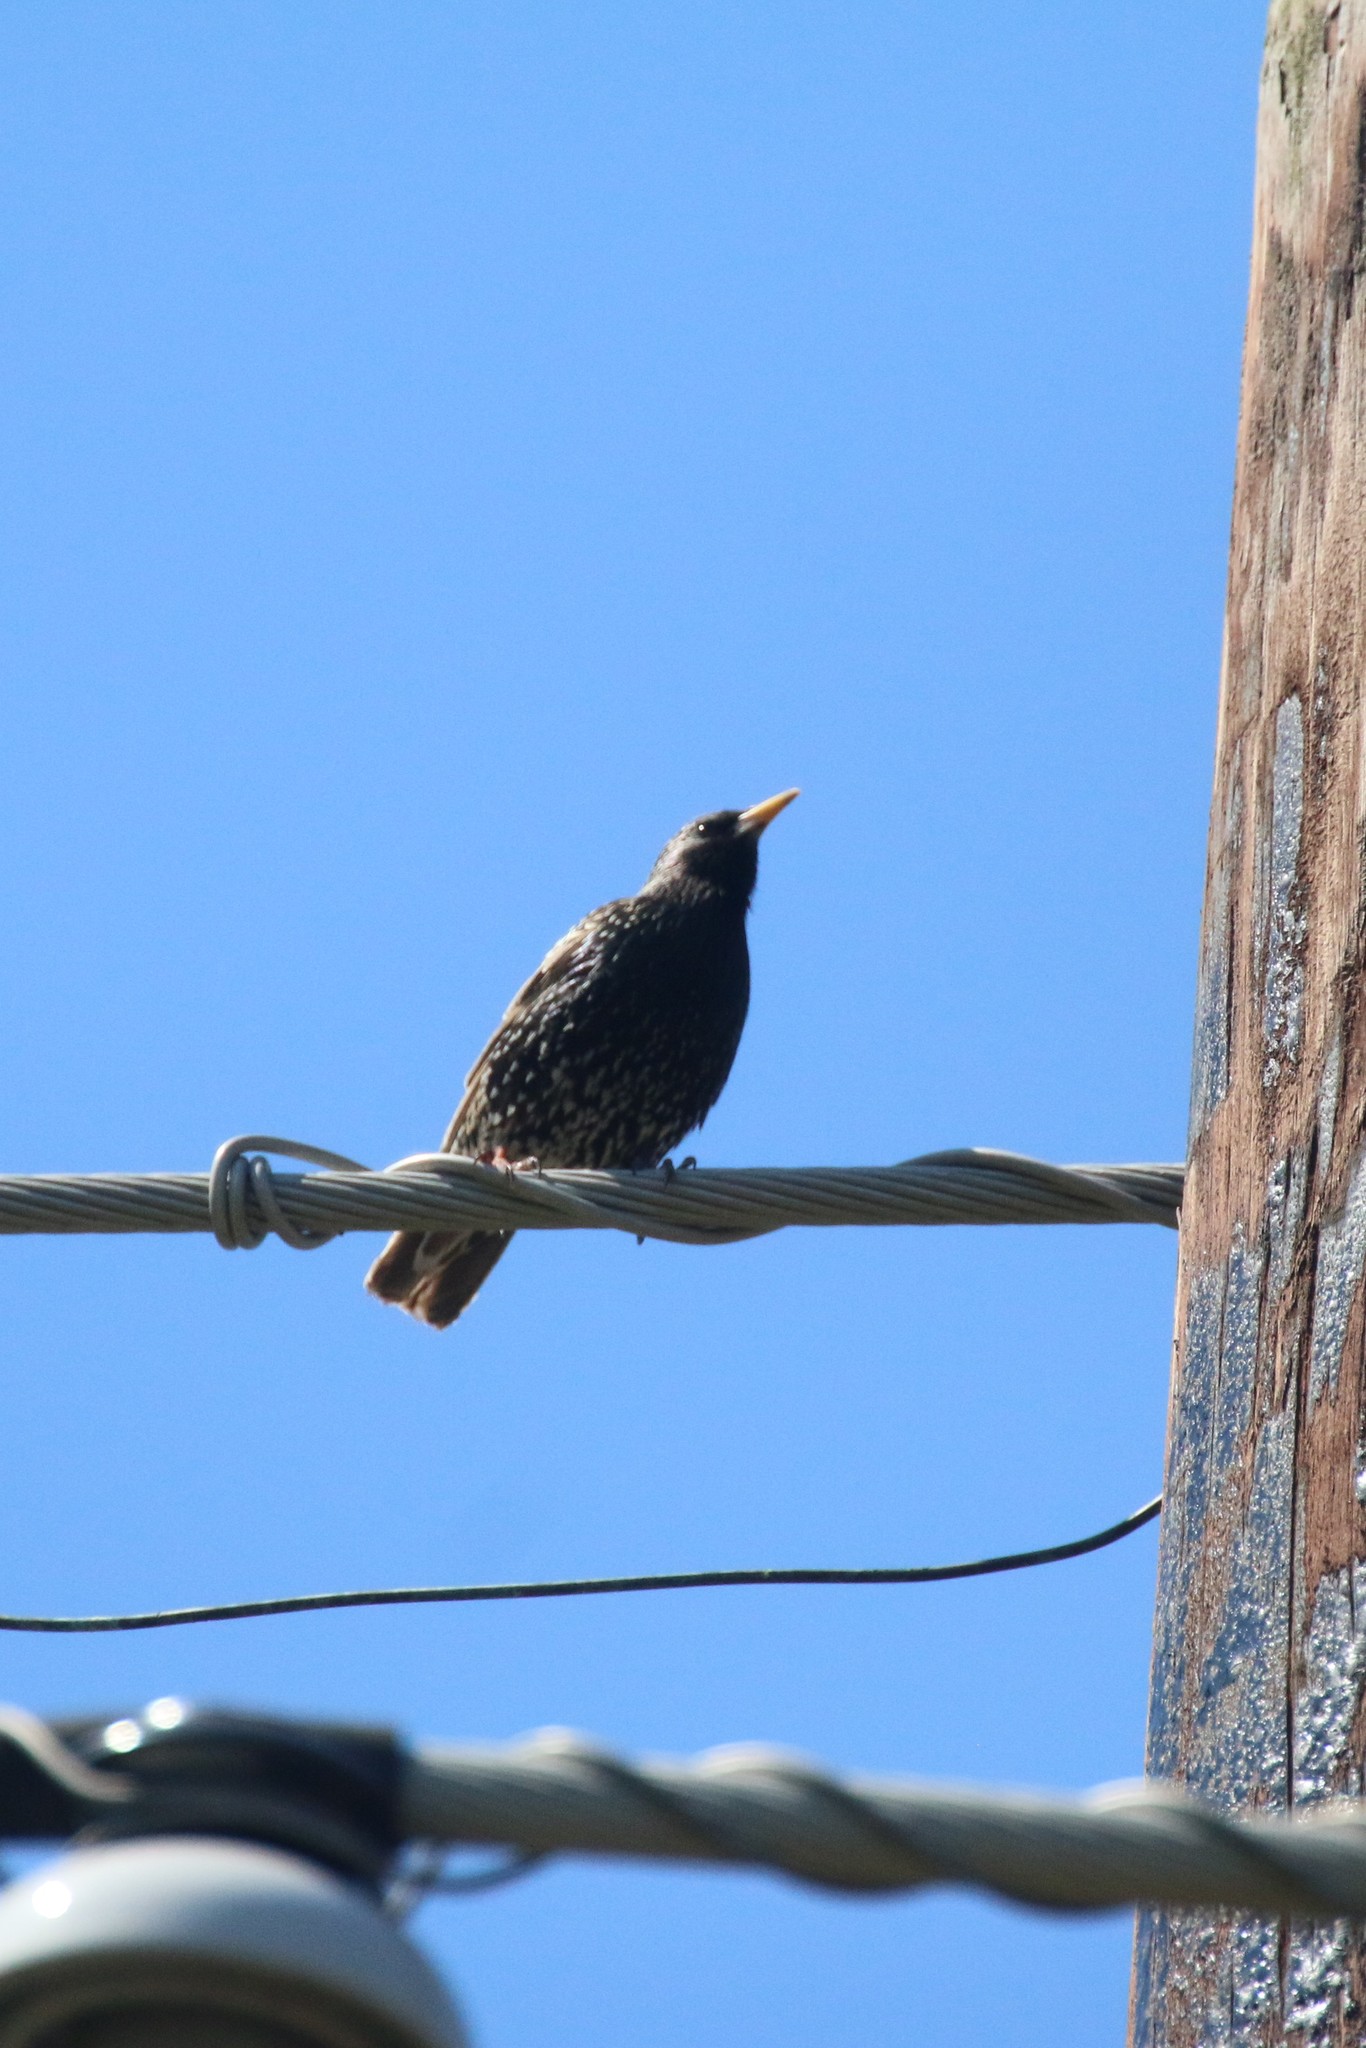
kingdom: Animalia
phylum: Chordata
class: Aves
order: Passeriformes
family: Sturnidae
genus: Sturnus
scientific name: Sturnus vulgaris
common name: Common starling
